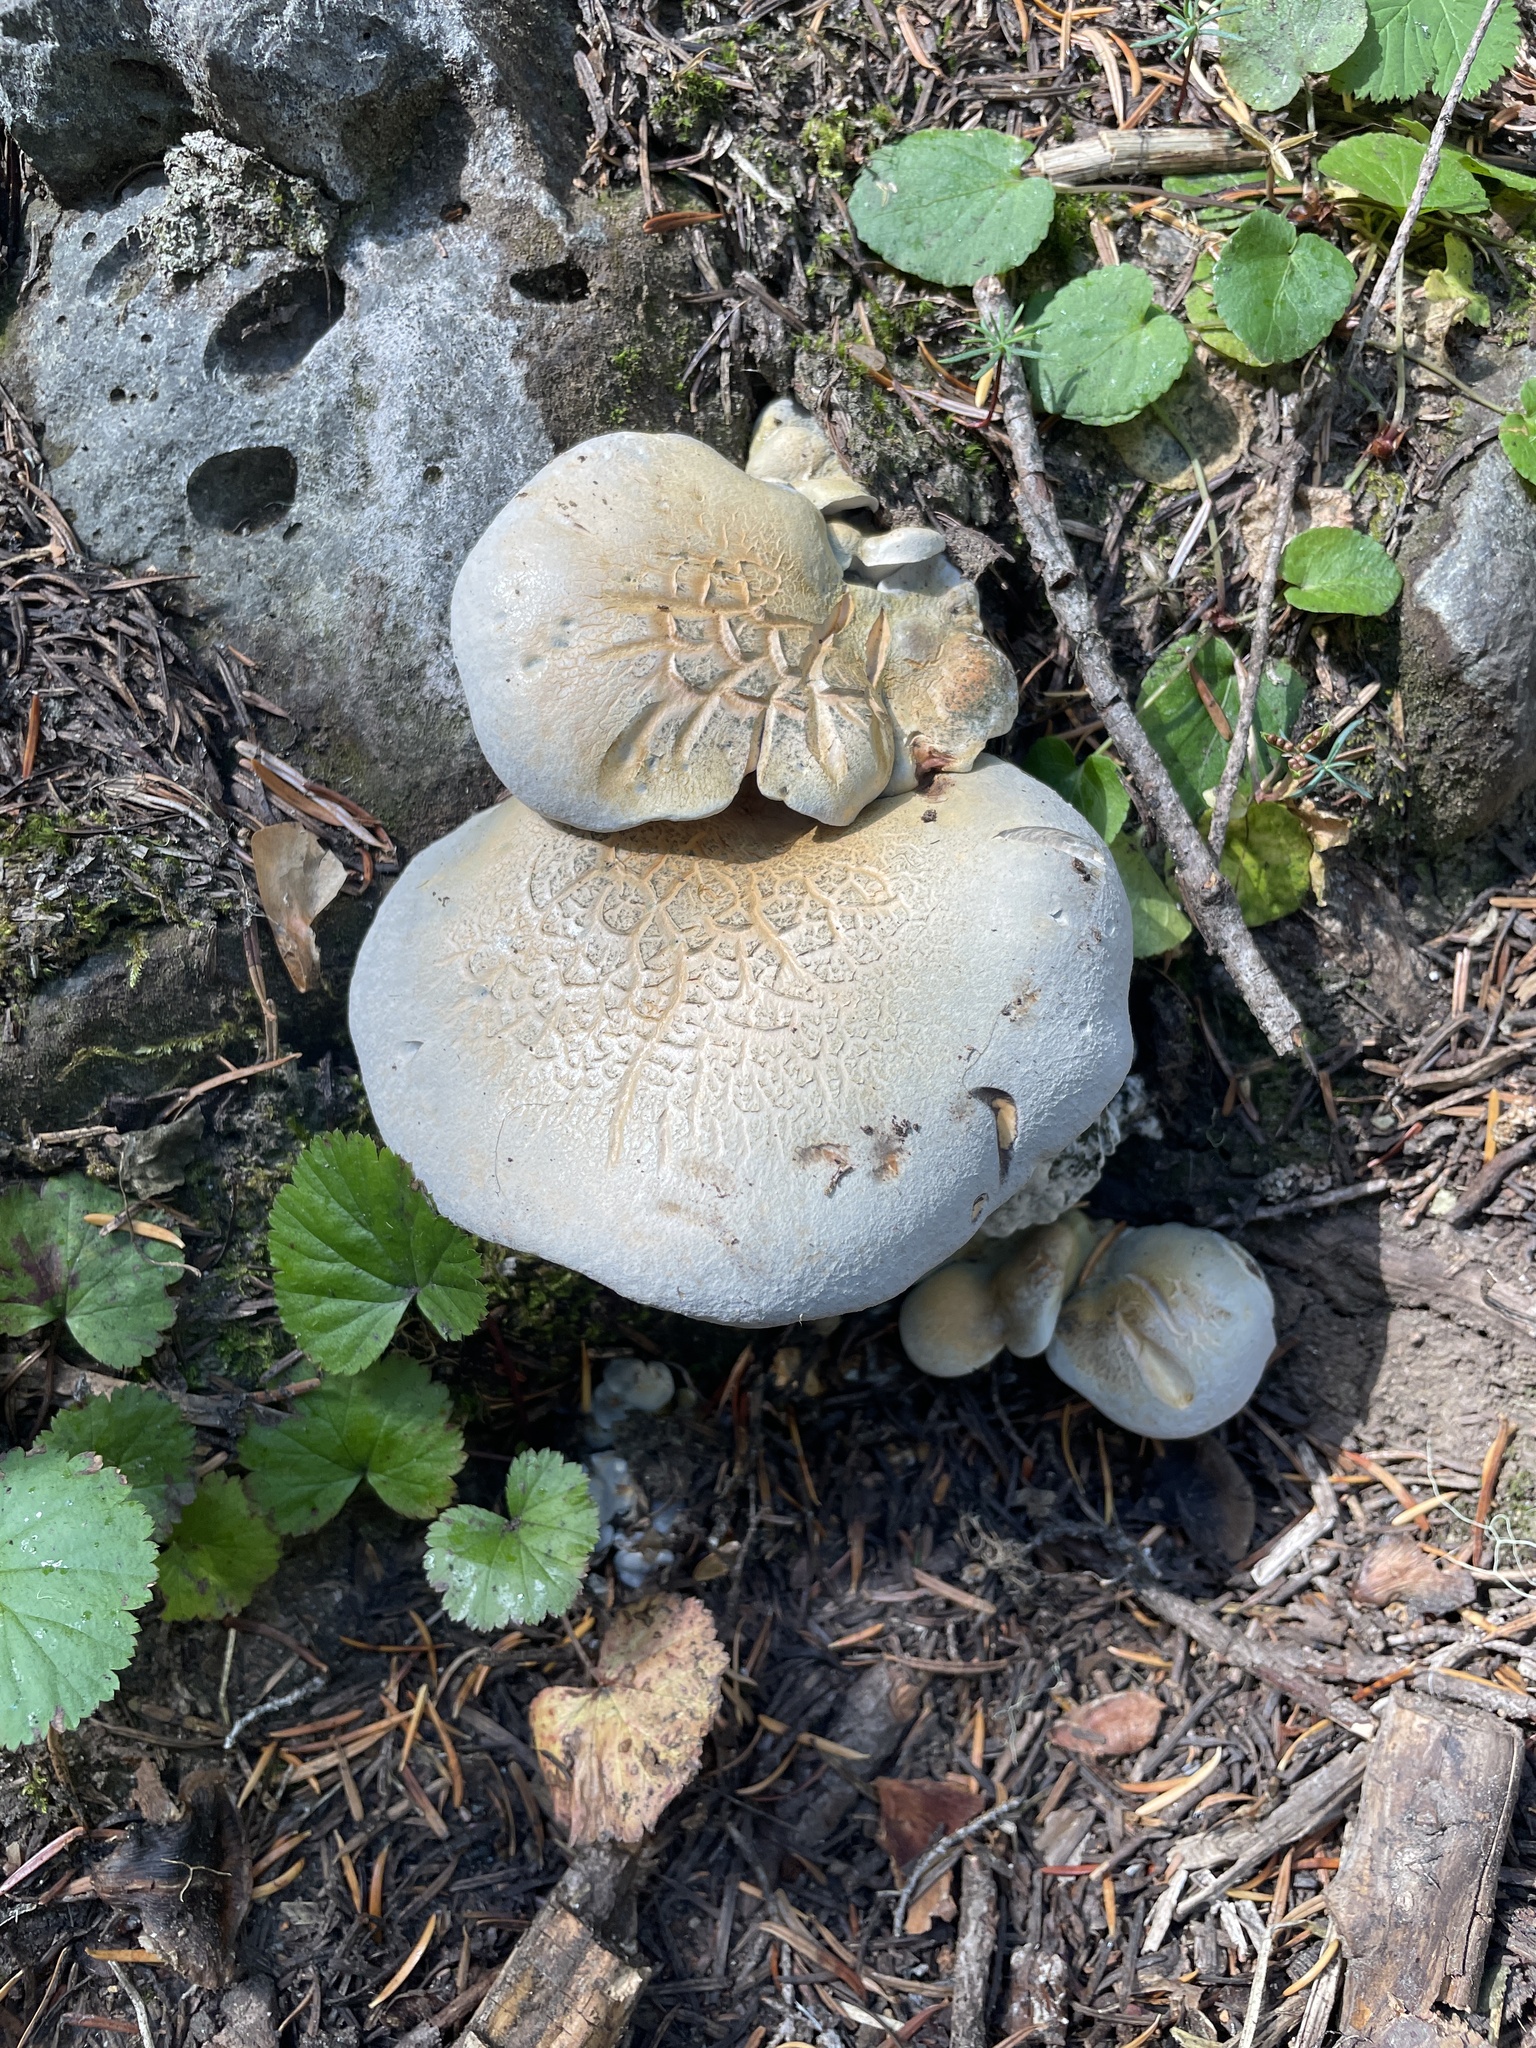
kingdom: Fungi
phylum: Basidiomycota
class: Agaricomycetes
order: Russulales
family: Albatrellaceae
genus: Albatrellopsis
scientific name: Albatrellopsis flettii
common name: Blue polypore
